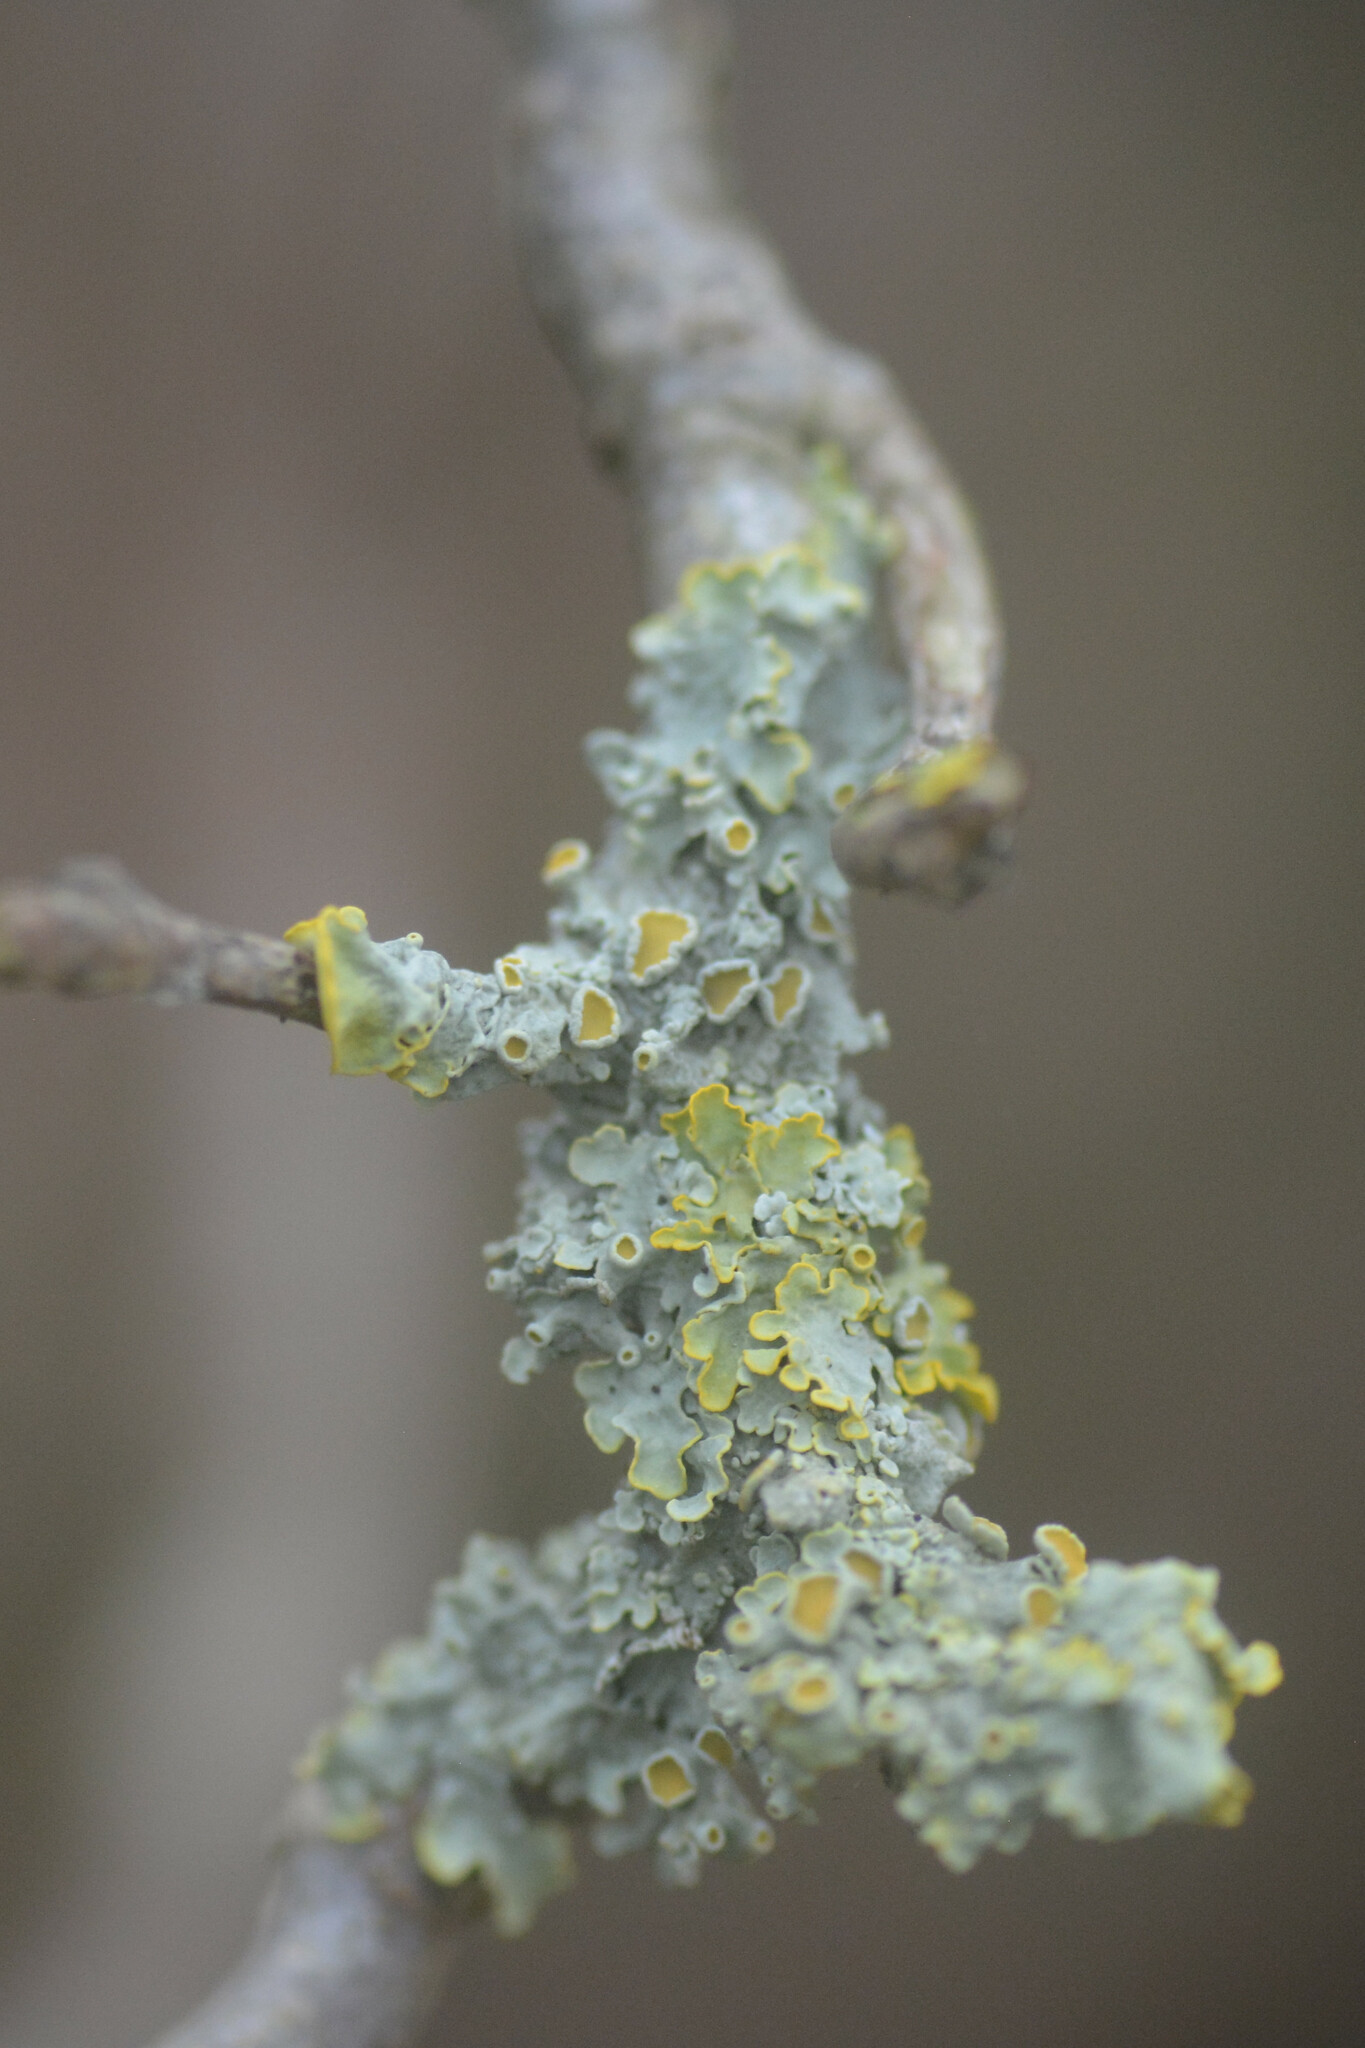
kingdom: Fungi
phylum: Ascomycota
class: Lecanoromycetes
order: Teloschistales
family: Teloschistaceae
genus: Xanthoria
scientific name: Xanthoria parietina
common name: Common orange lichen
